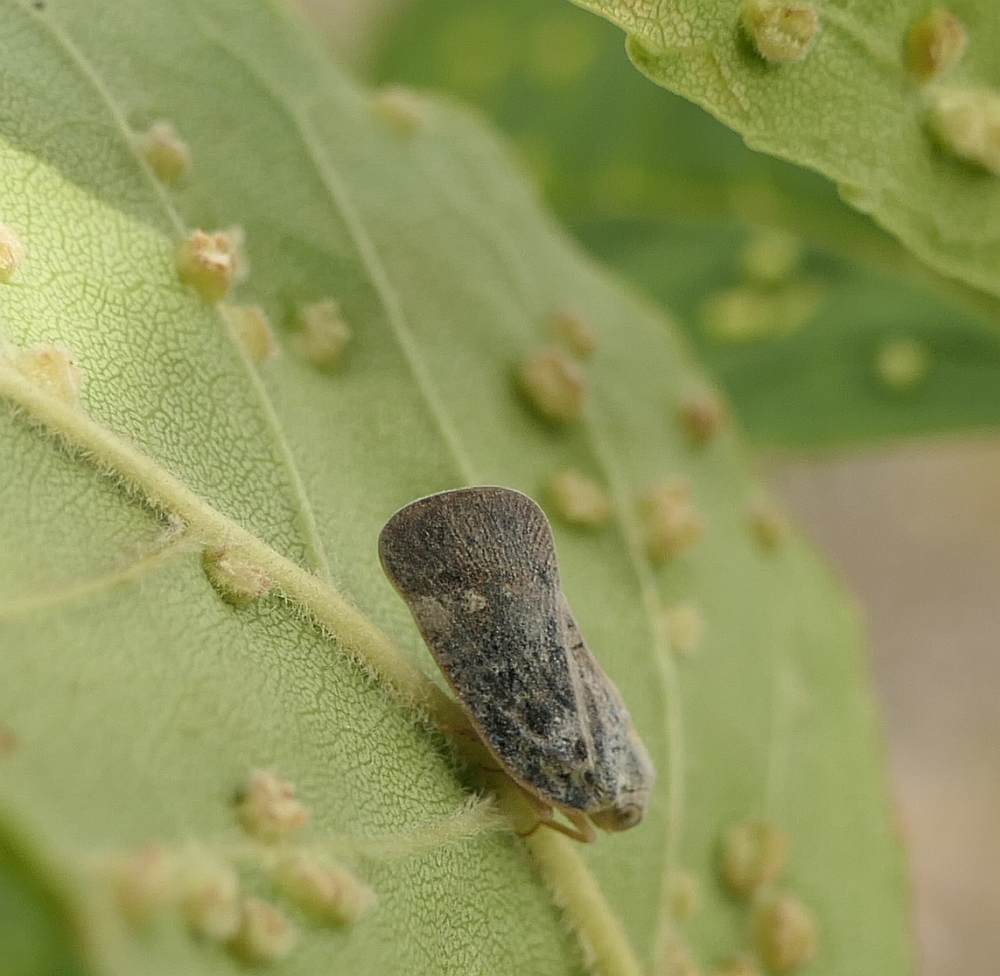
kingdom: Animalia
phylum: Arthropoda
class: Insecta
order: Hemiptera
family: Flatidae
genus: Metcalfa
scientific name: Metcalfa pruinosa
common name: Citrus flatid planthopper
